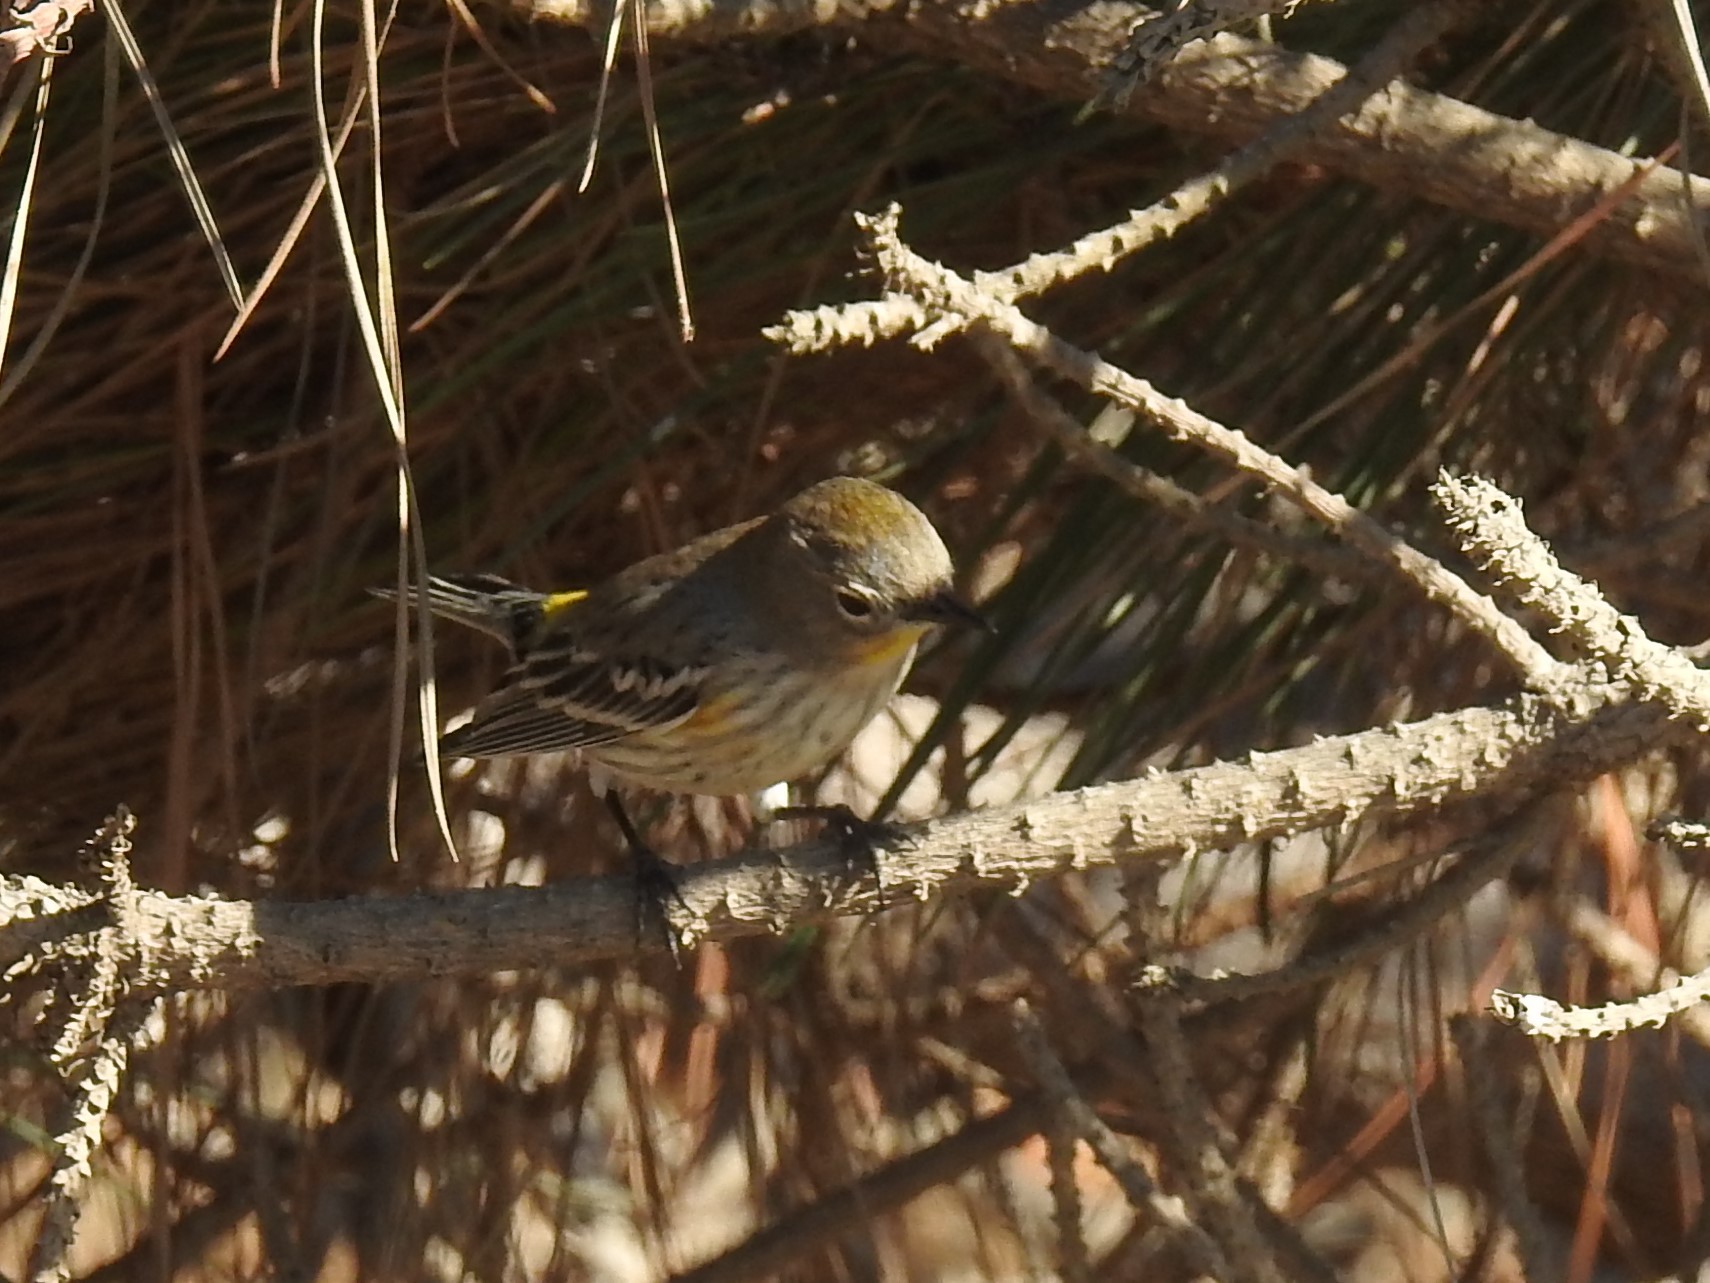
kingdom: Animalia
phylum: Chordata
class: Aves
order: Passeriformes
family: Parulidae
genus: Setophaga
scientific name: Setophaga coronata
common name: Myrtle warbler
